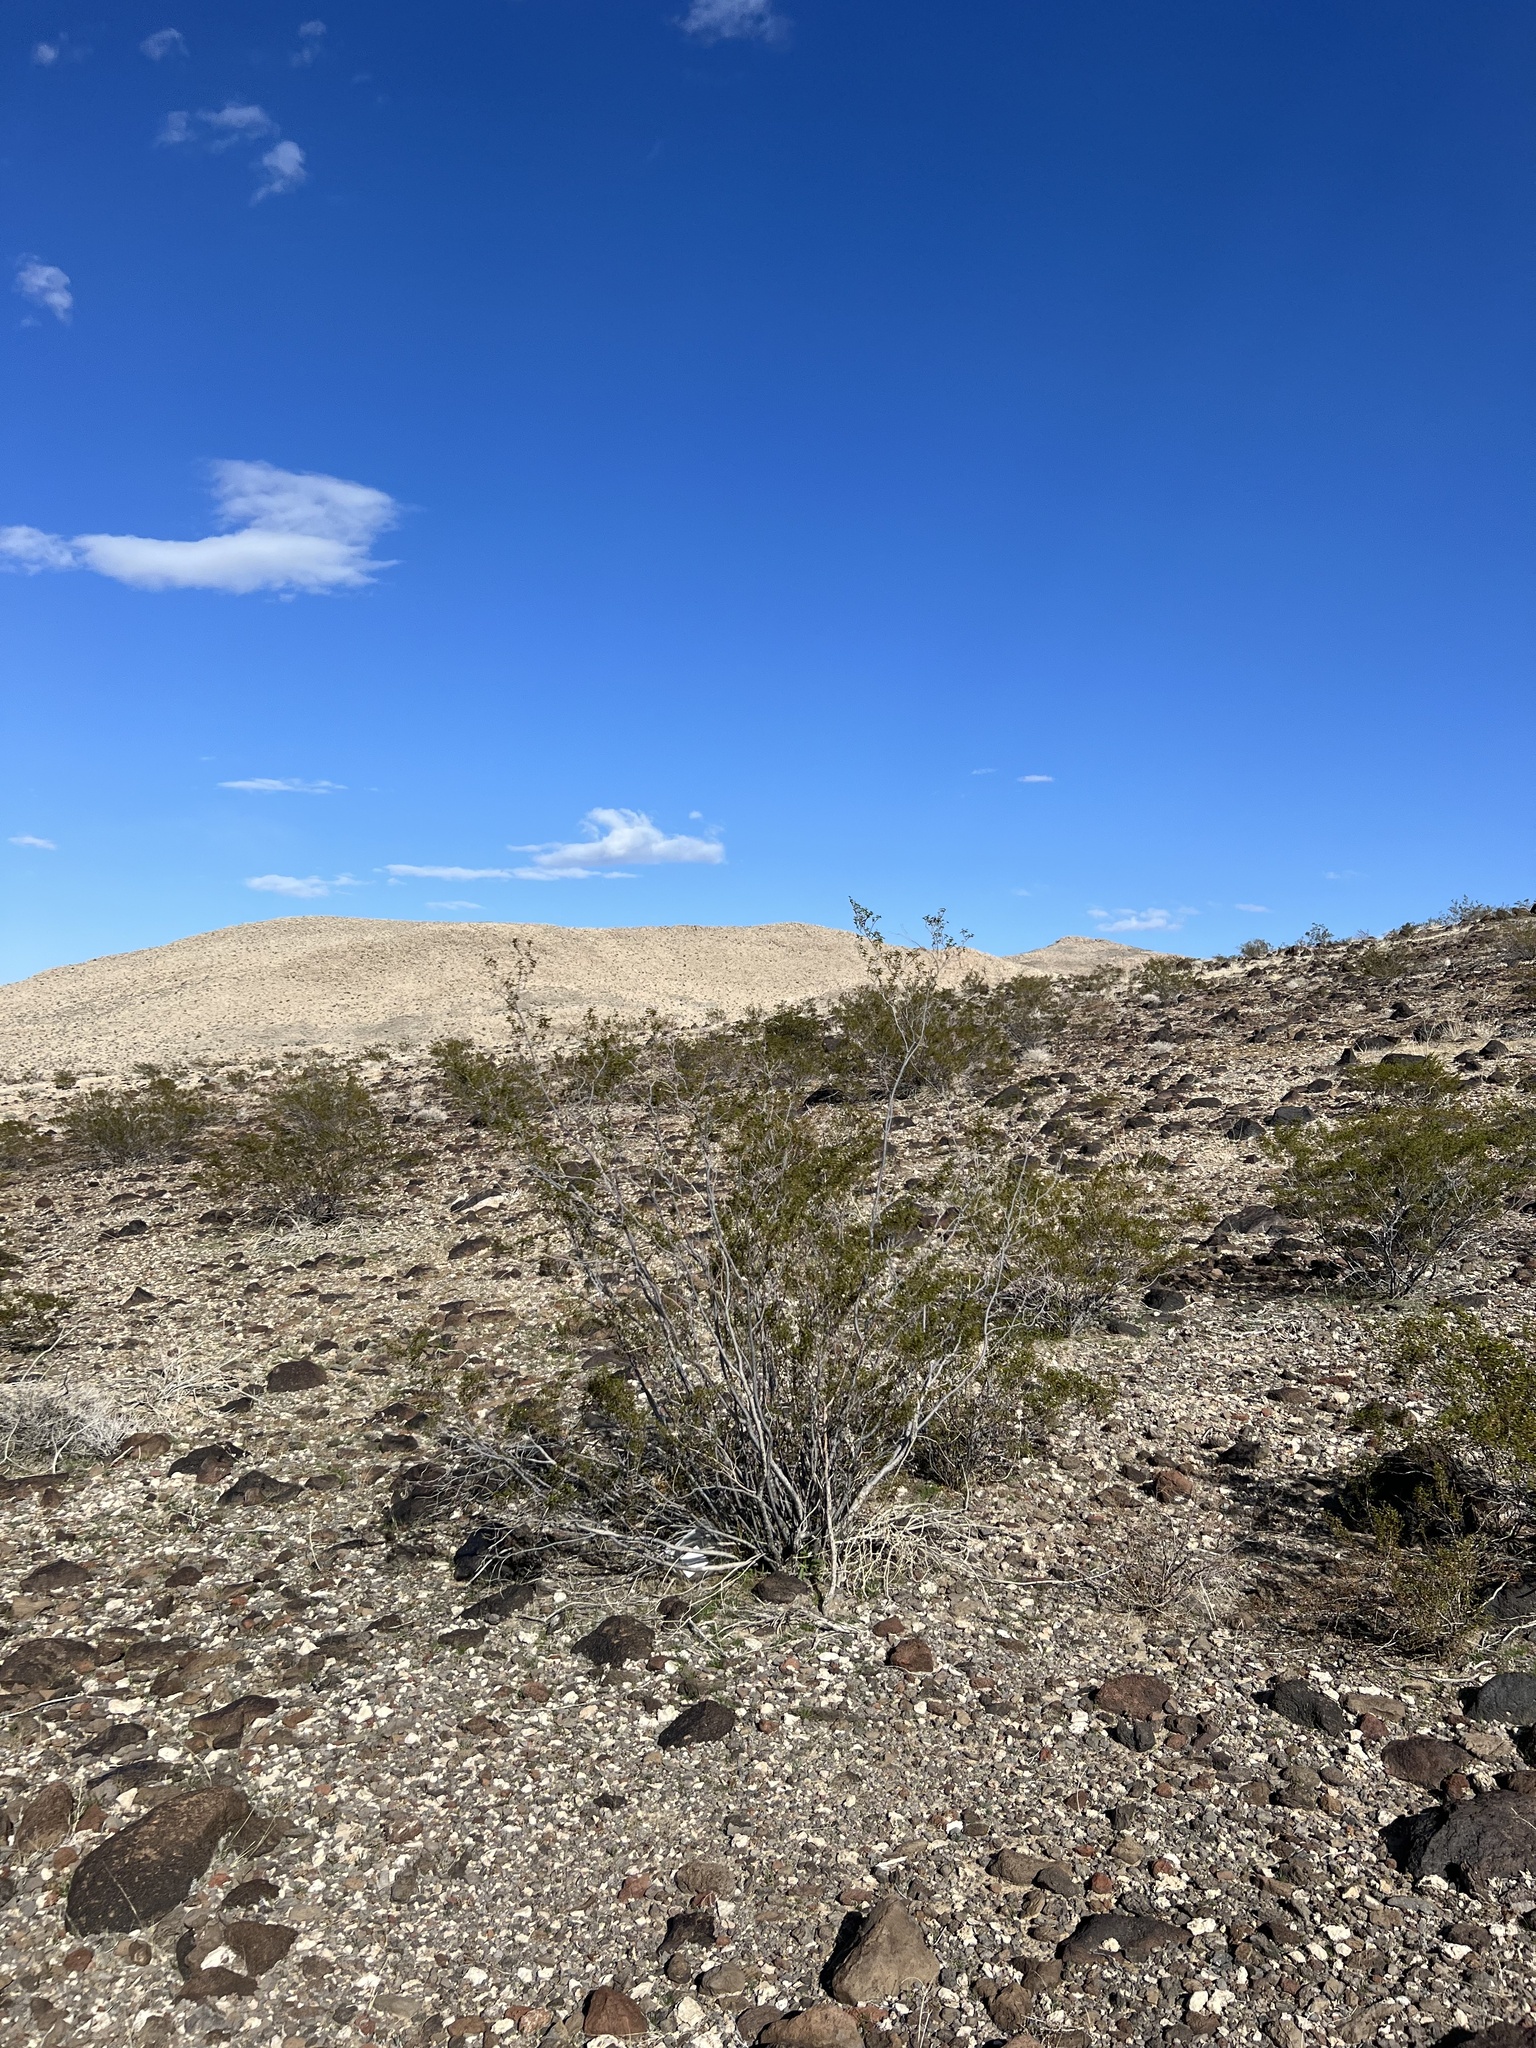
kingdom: Plantae
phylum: Tracheophyta
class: Magnoliopsida
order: Zygophyllales
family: Zygophyllaceae
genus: Larrea
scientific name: Larrea tridentata
